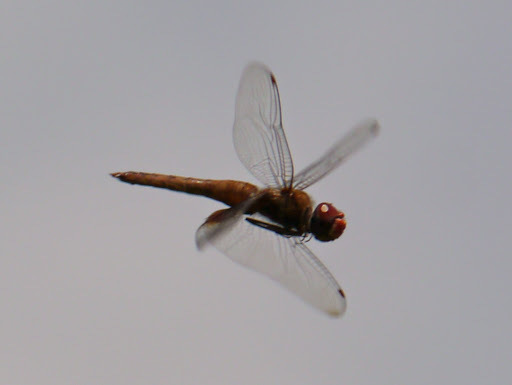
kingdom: Animalia
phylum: Arthropoda
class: Insecta
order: Odonata
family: Libellulidae
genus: Pantala
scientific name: Pantala hymenaea
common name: Spot-winged glider
